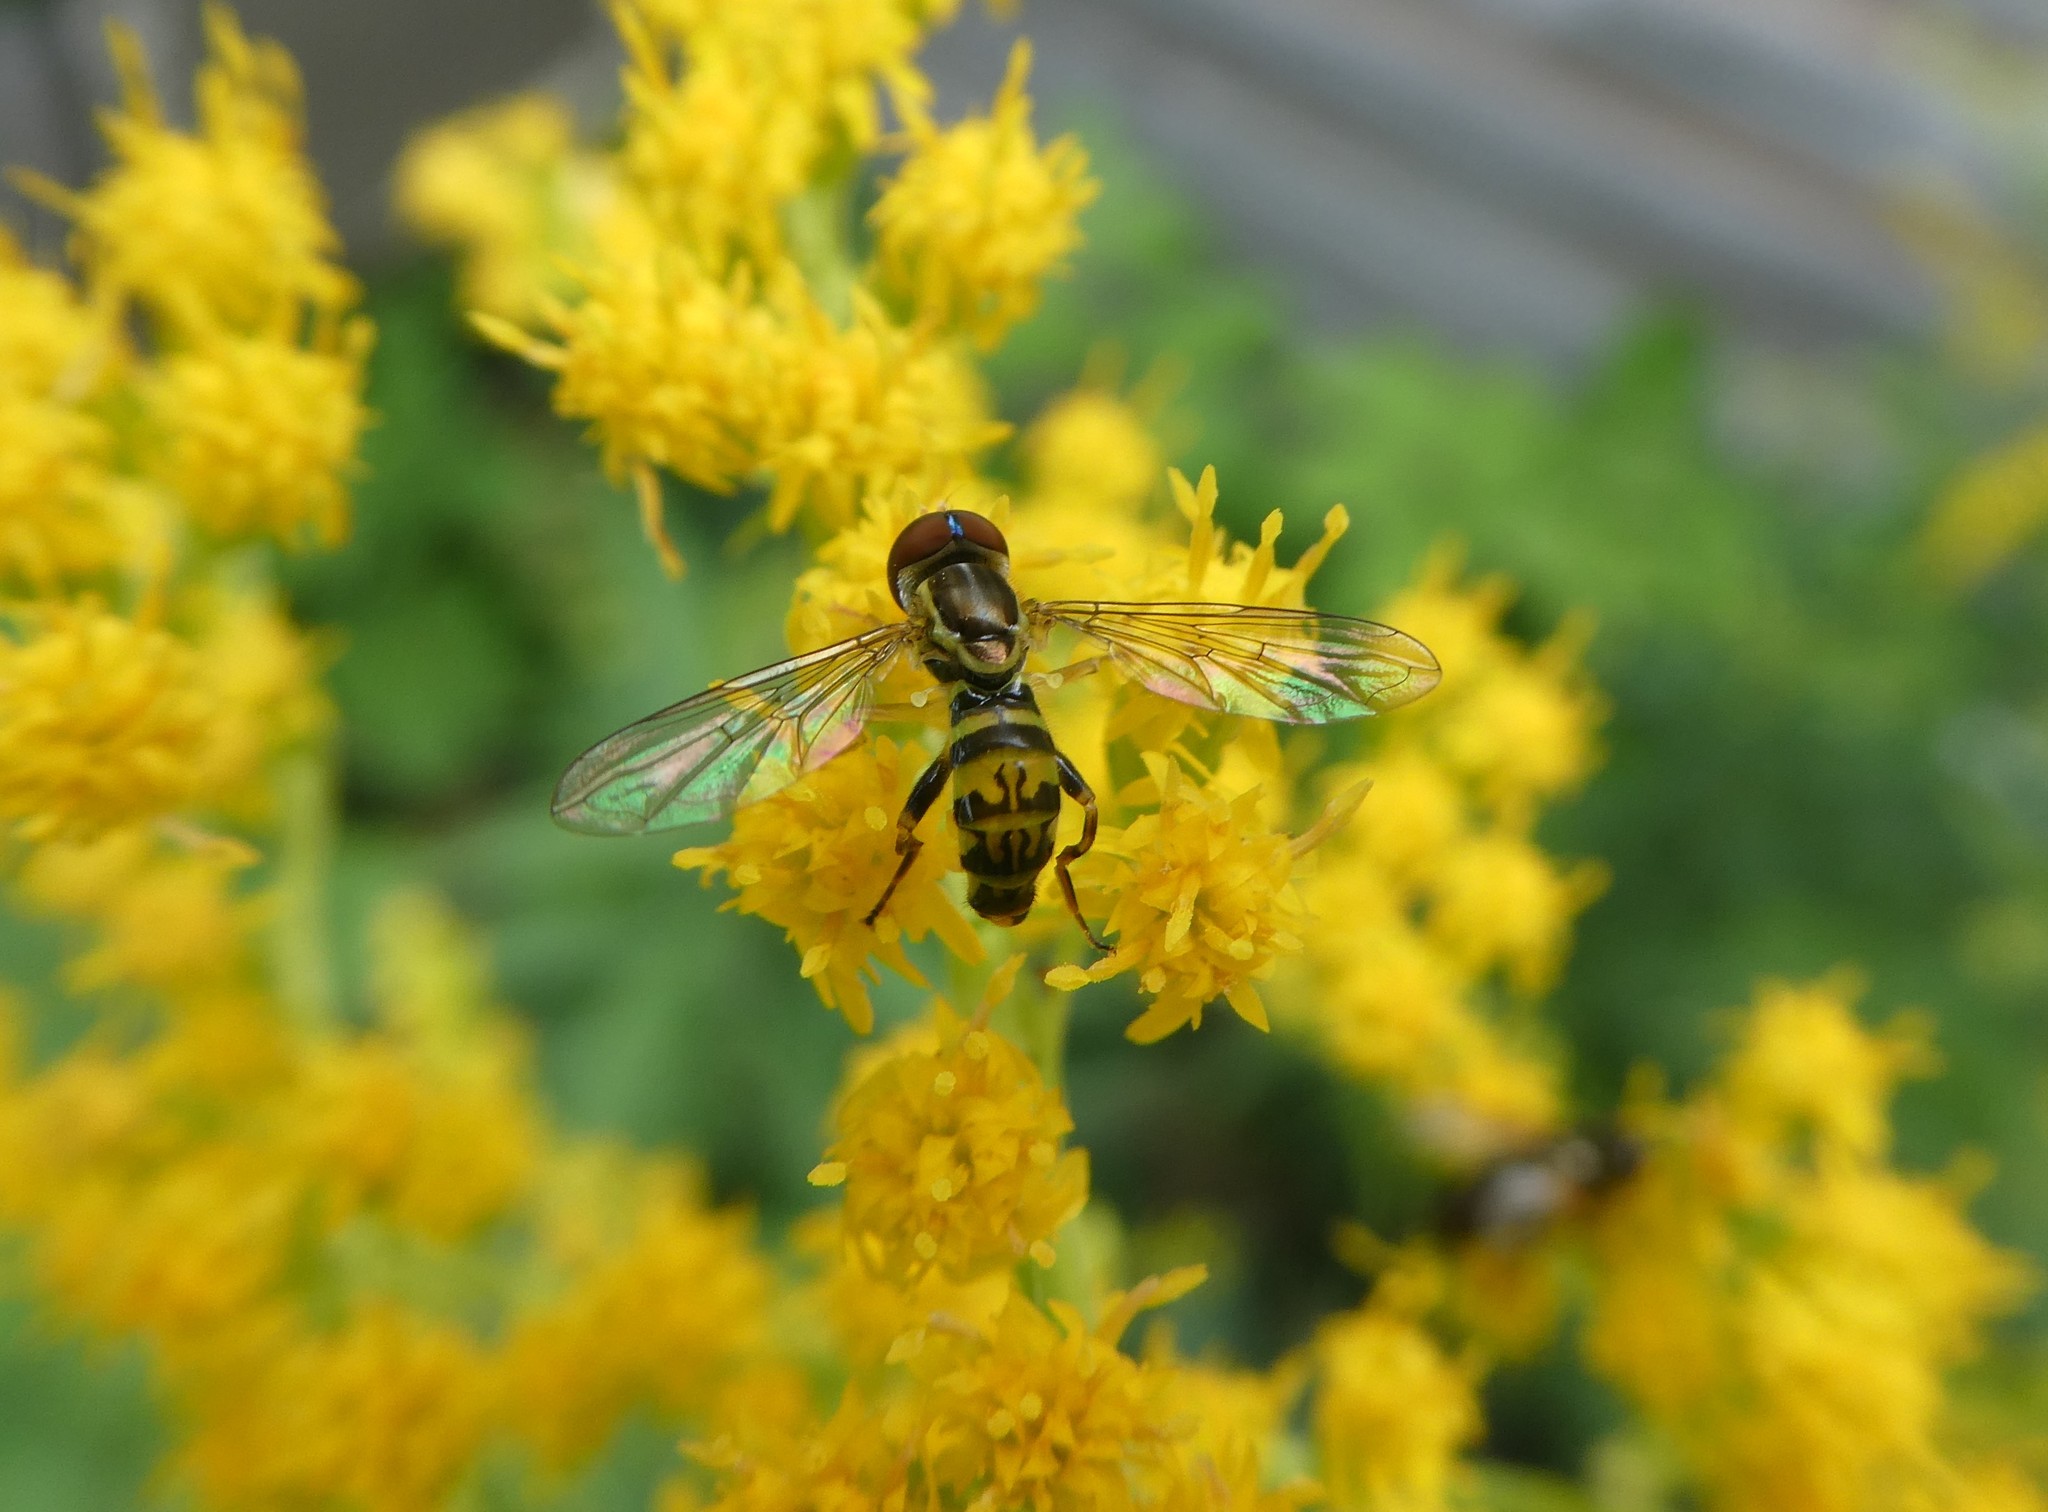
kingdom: Animalia
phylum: Arthropoda
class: Insecta
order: Diptera
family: Syrphidae
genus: Toxomerus
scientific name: Toxomerus geminatus
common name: Eastern calligrapher
